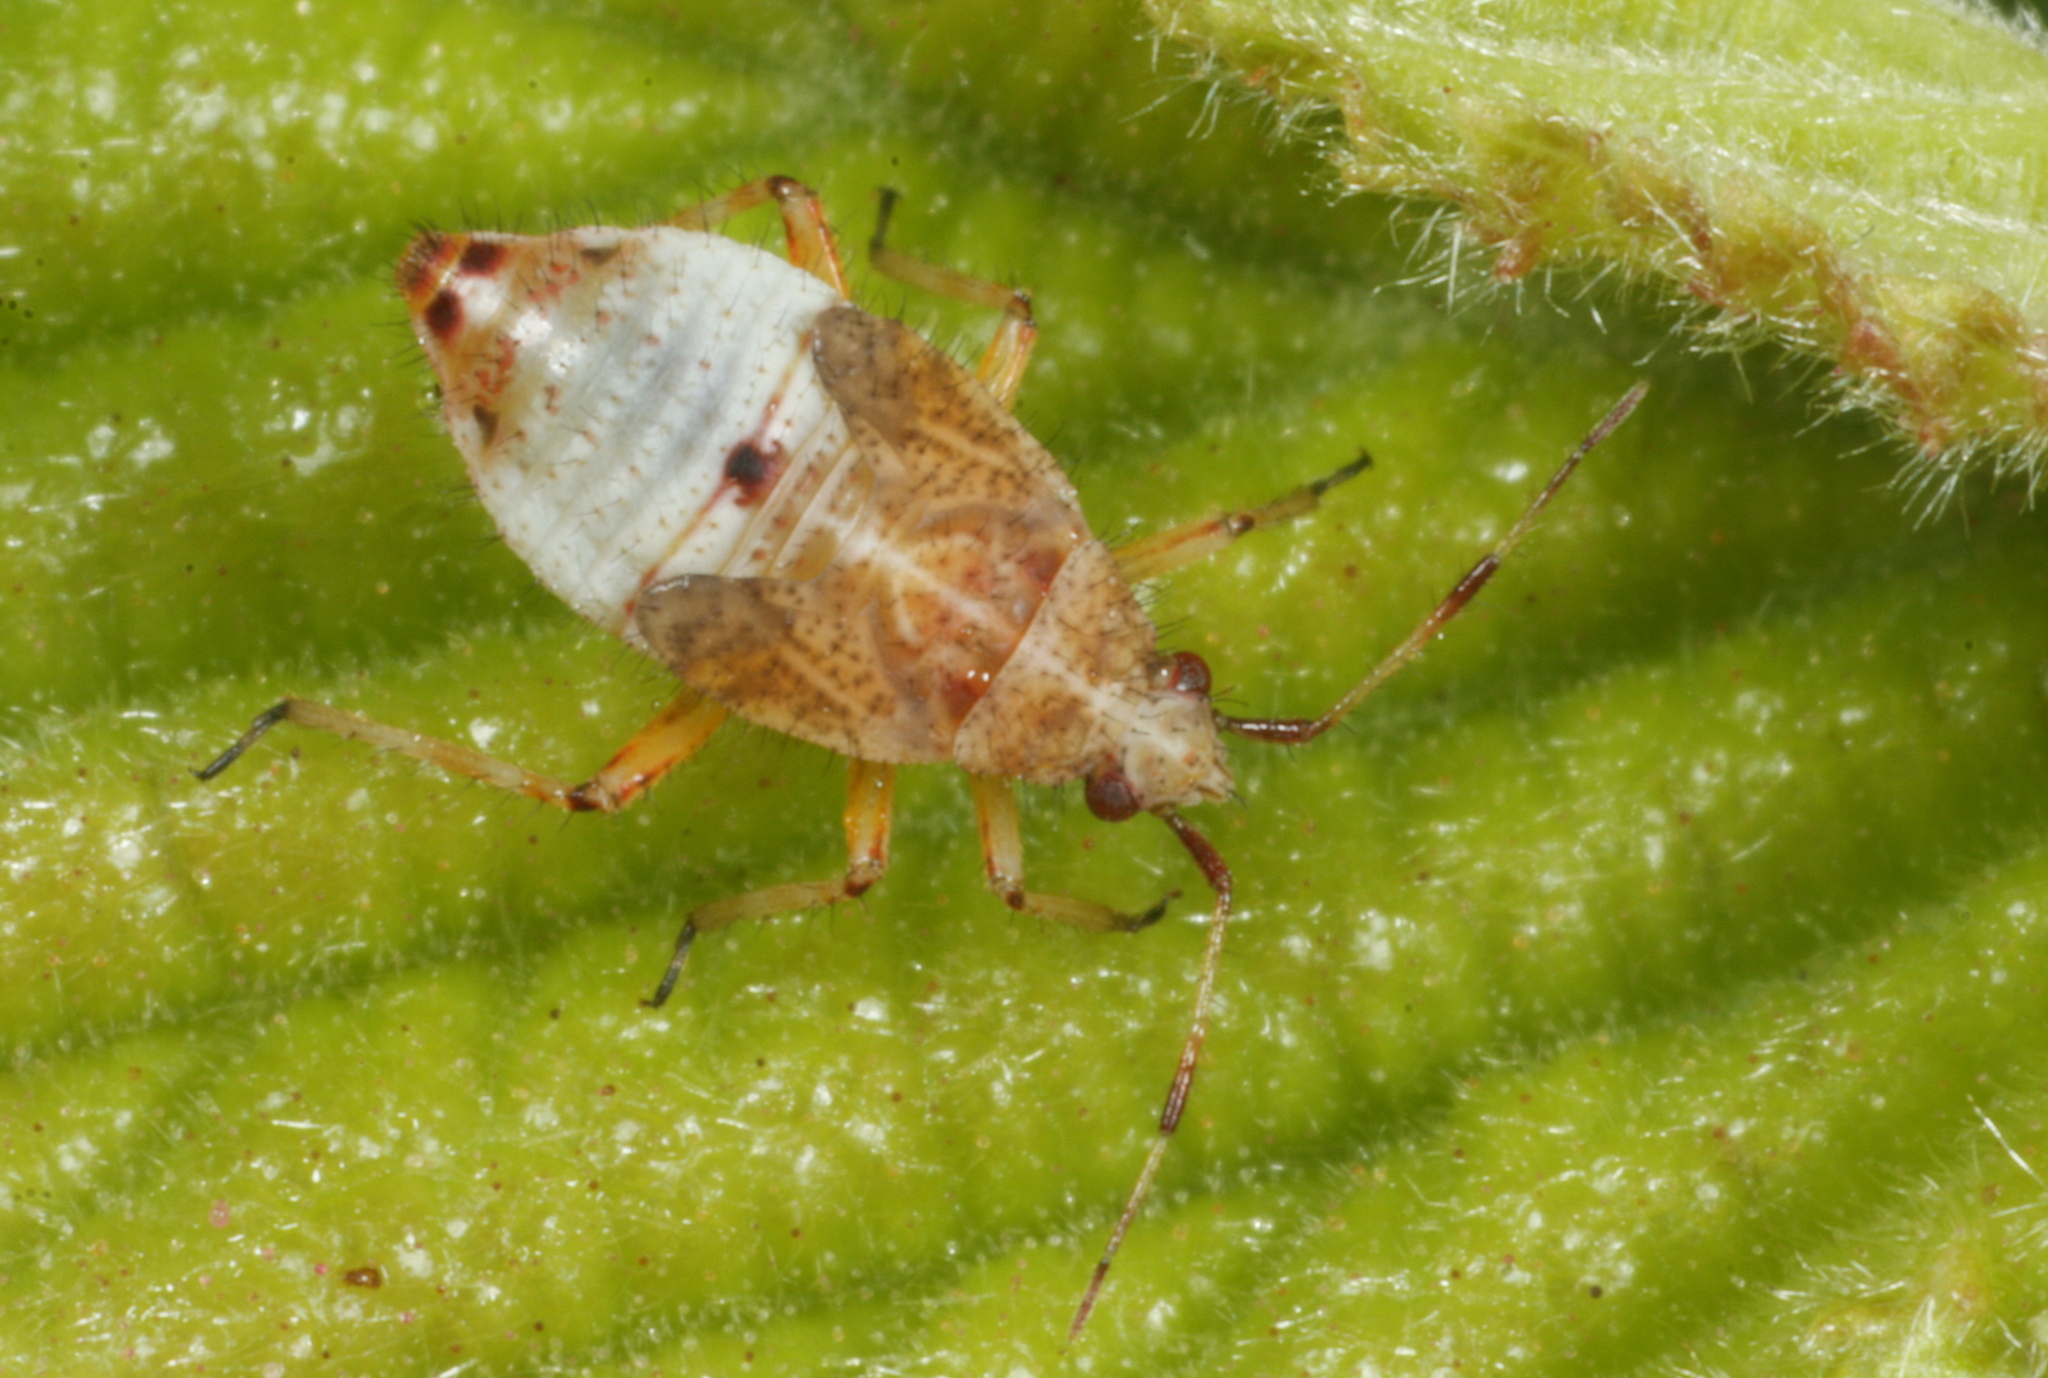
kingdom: Animalia
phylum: Arthropoda
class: Insecta
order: Hemiptera
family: Miridae
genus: Deraeocoris
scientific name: Deraeocoris flavilinea
